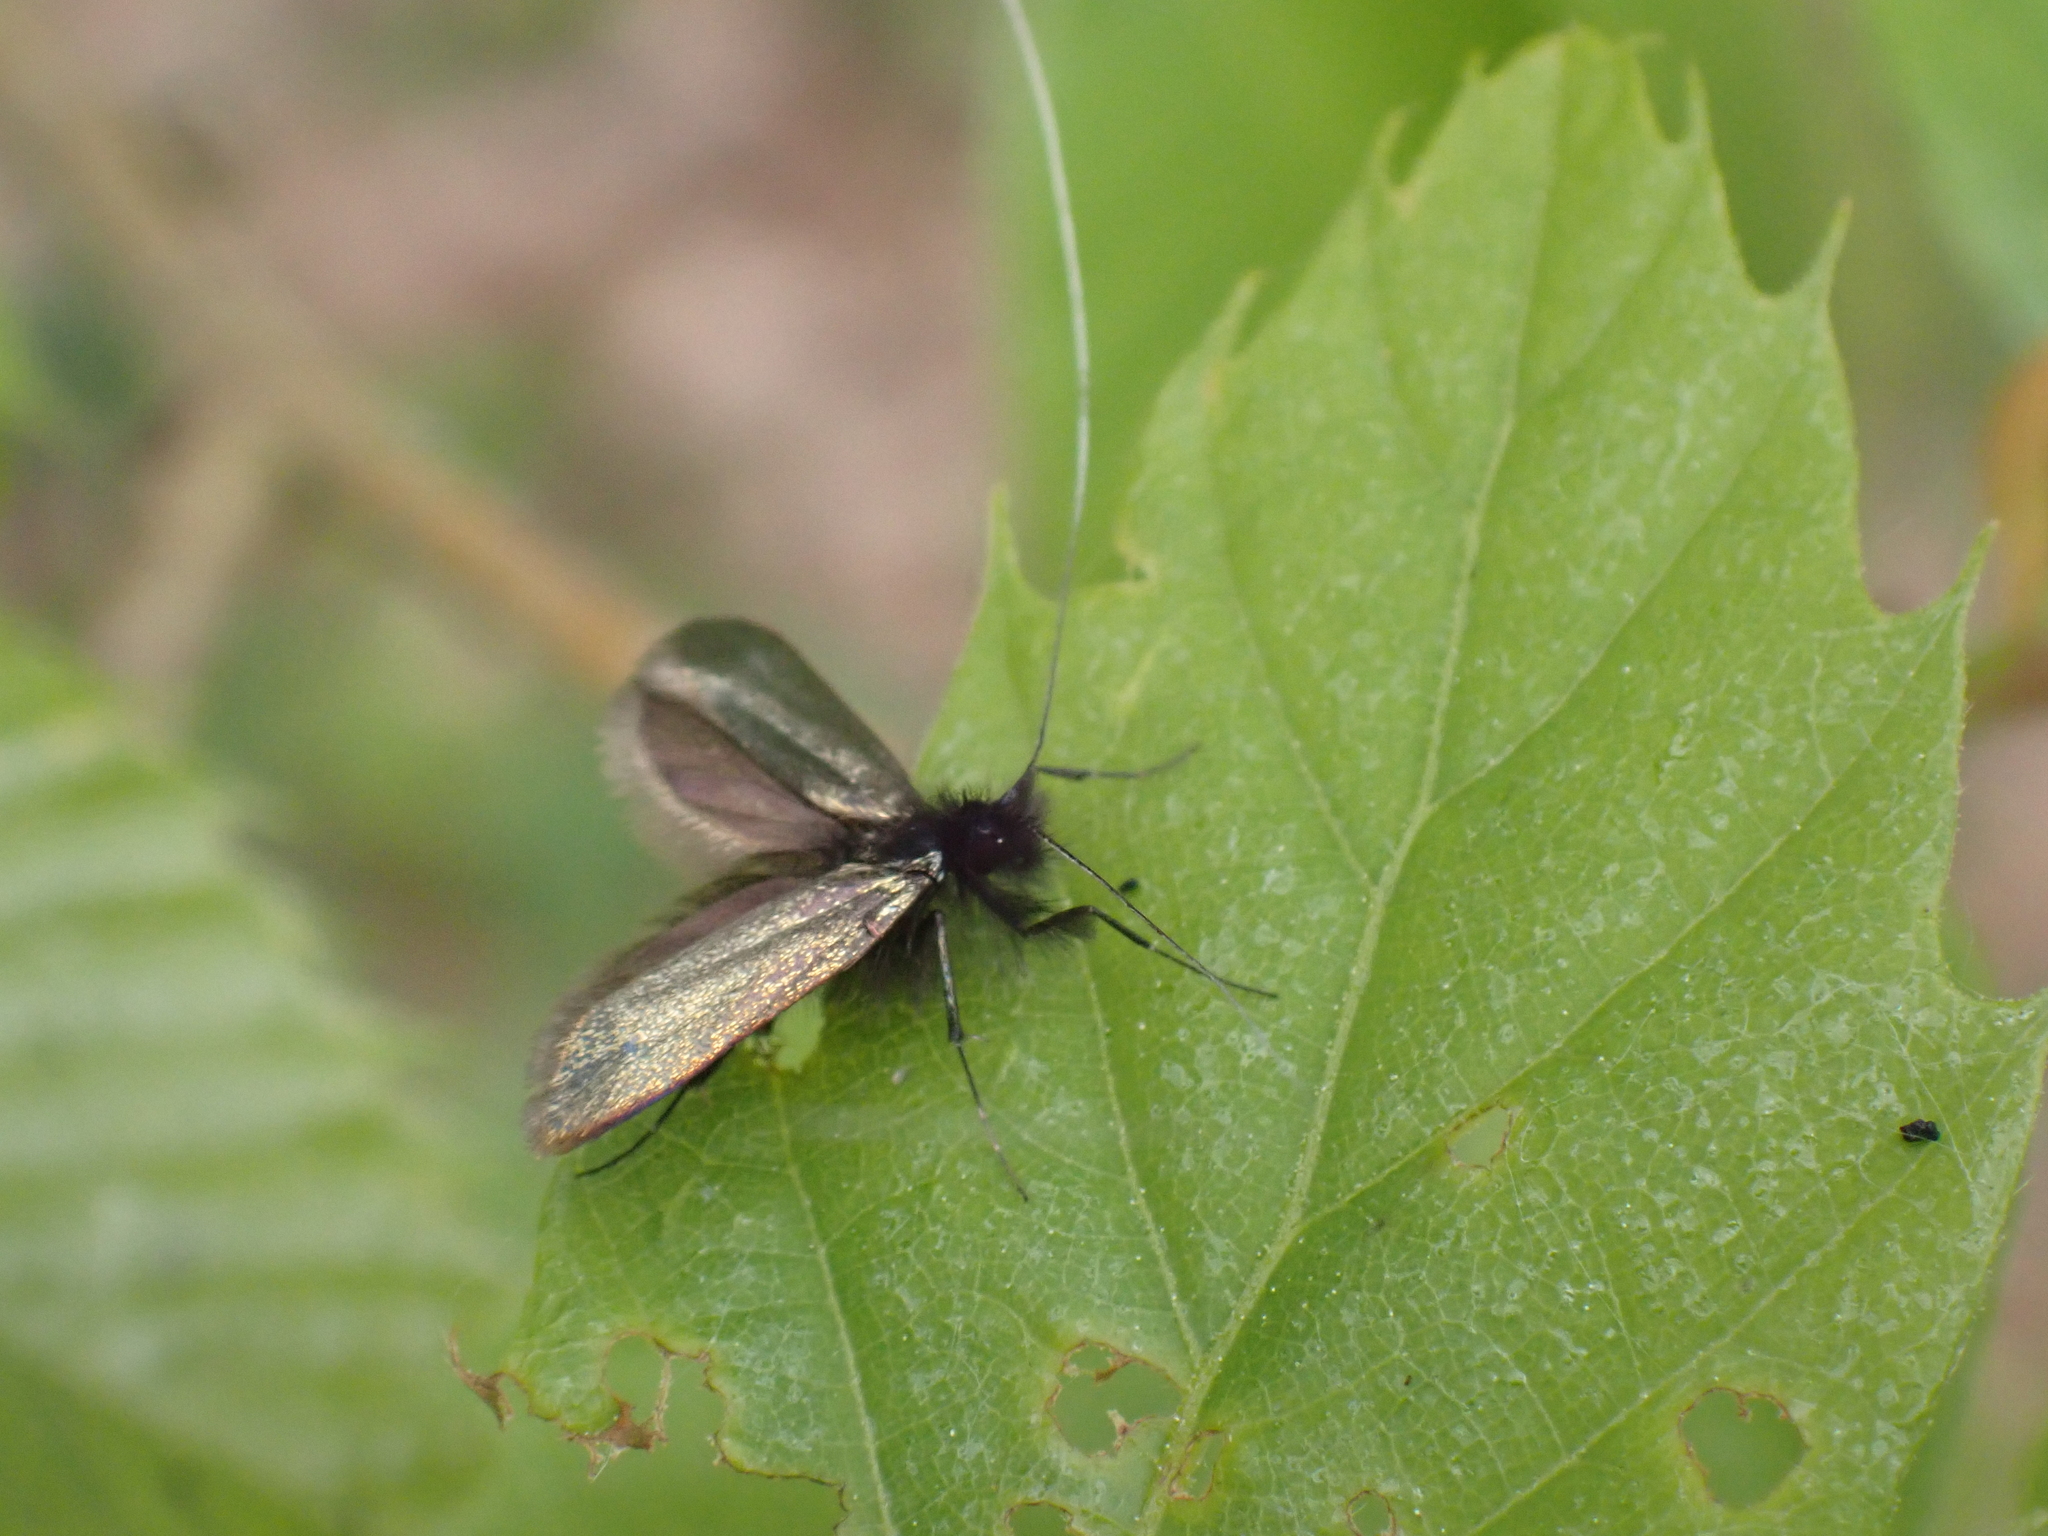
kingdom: Animalia
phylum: Arthropoda
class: Insecta
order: Lepidoptera
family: Adelidae
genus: Adela
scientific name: Adela viridella
